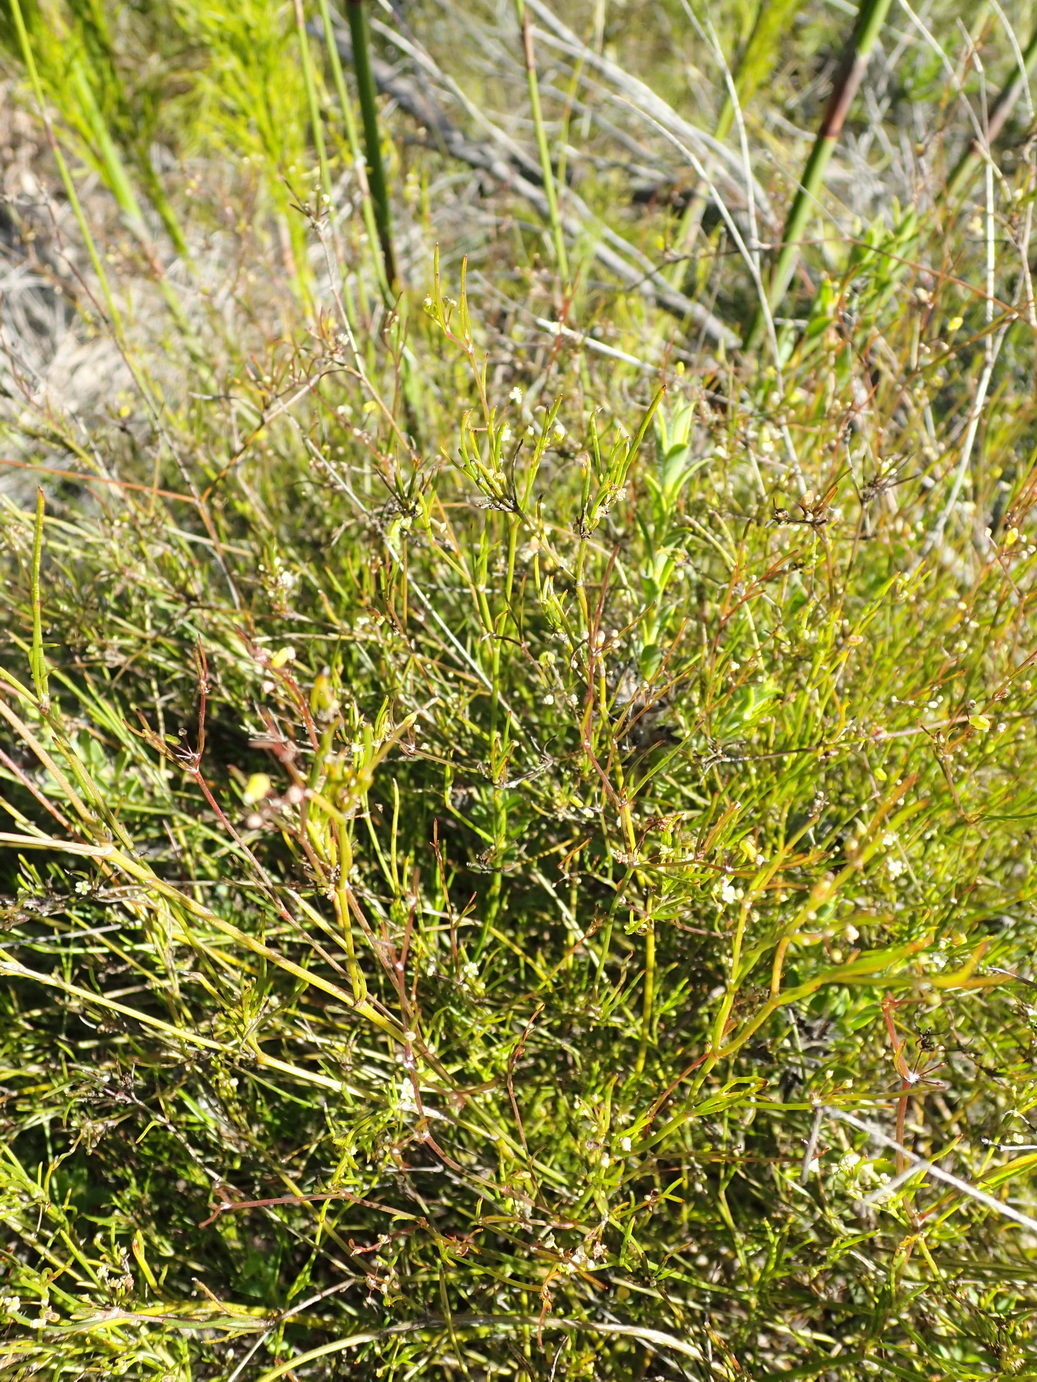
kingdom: Plantae
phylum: Tracheophyta
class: Magnoliopsida
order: Apiales
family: Apiaceae
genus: Centella
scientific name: Centella virgata
